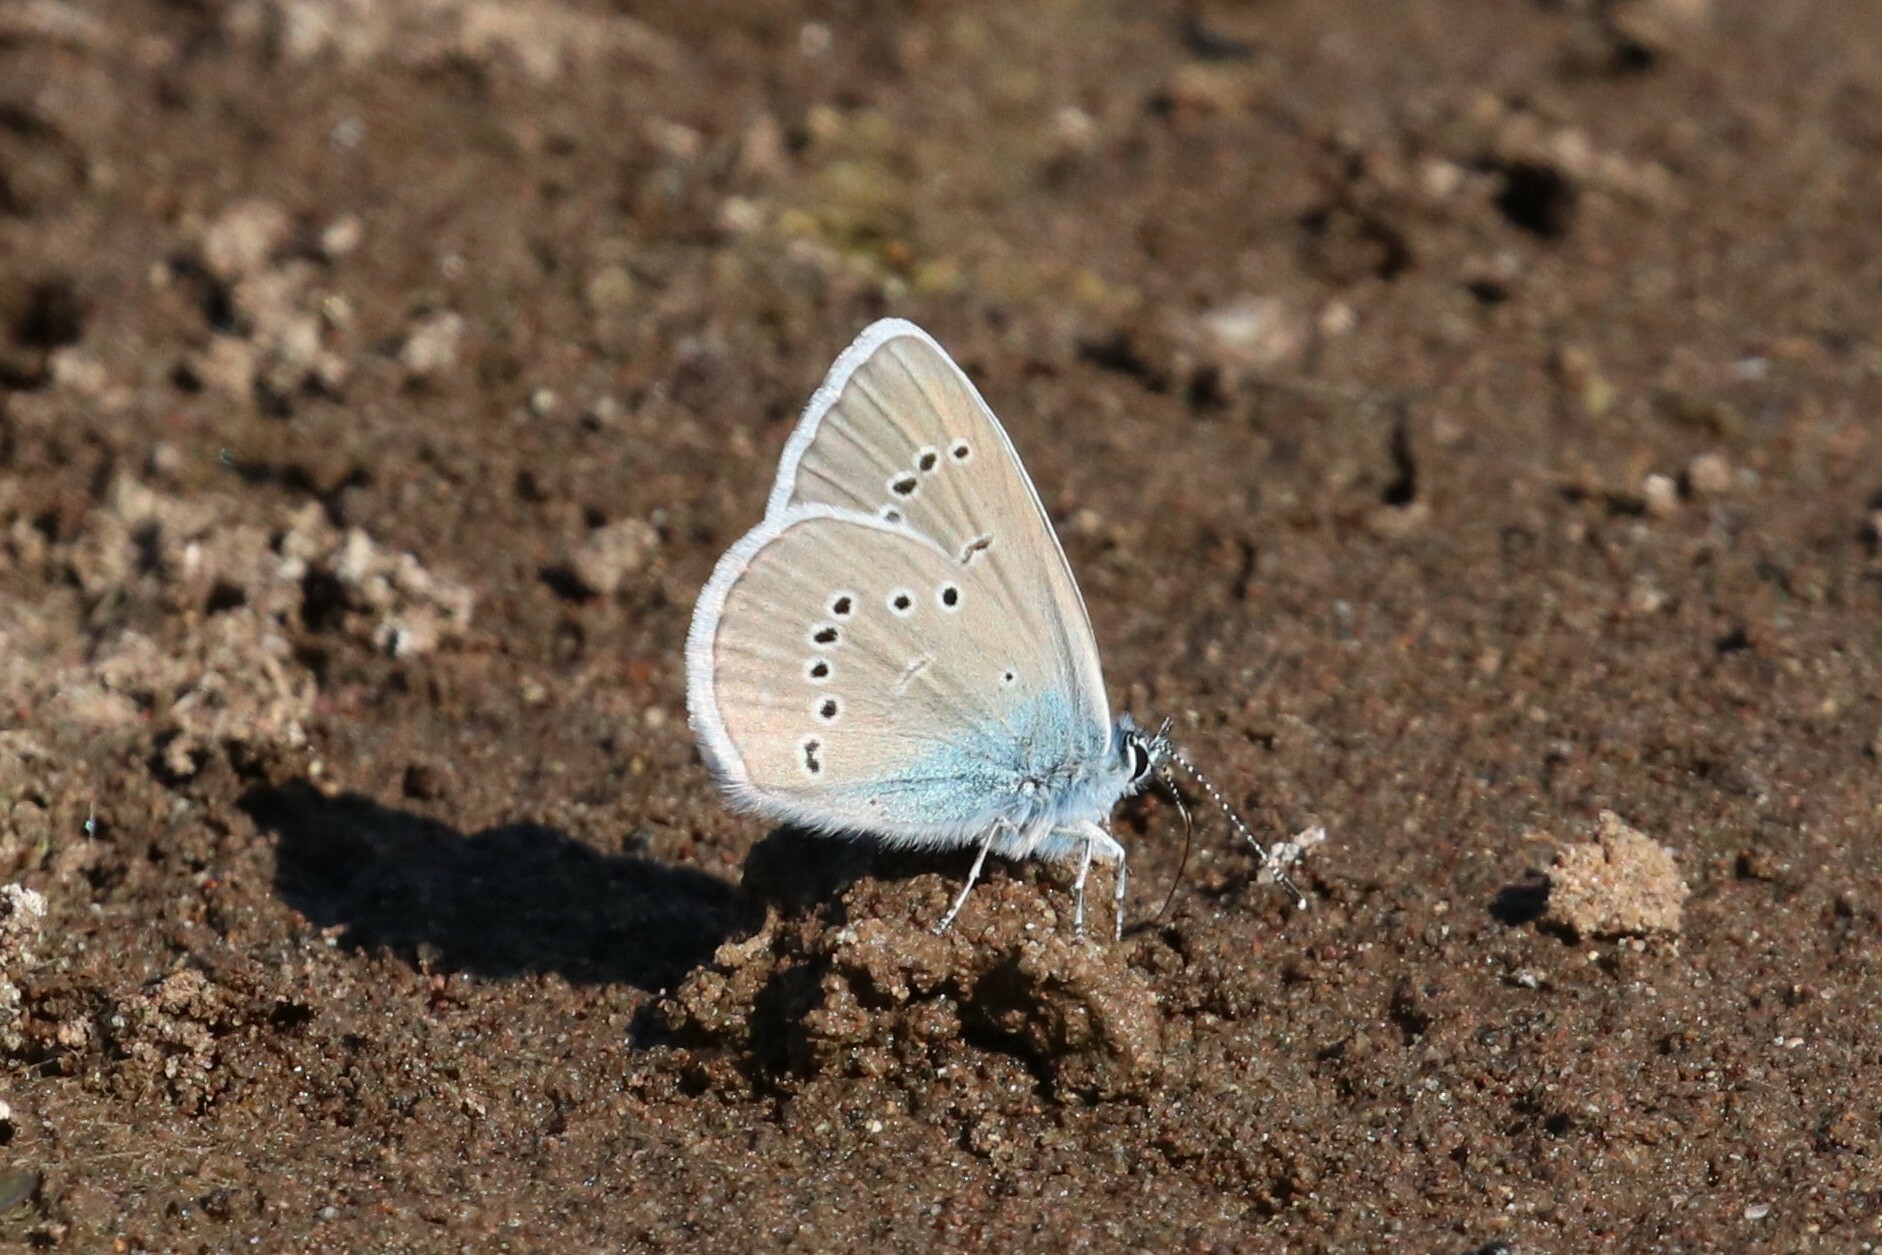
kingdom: Animalia
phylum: Arthropoda
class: Insecta
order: Lepidoptera
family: Lycaenidae
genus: Cyaniris
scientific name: Cyaniris semiargus
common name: Mazarine blue
